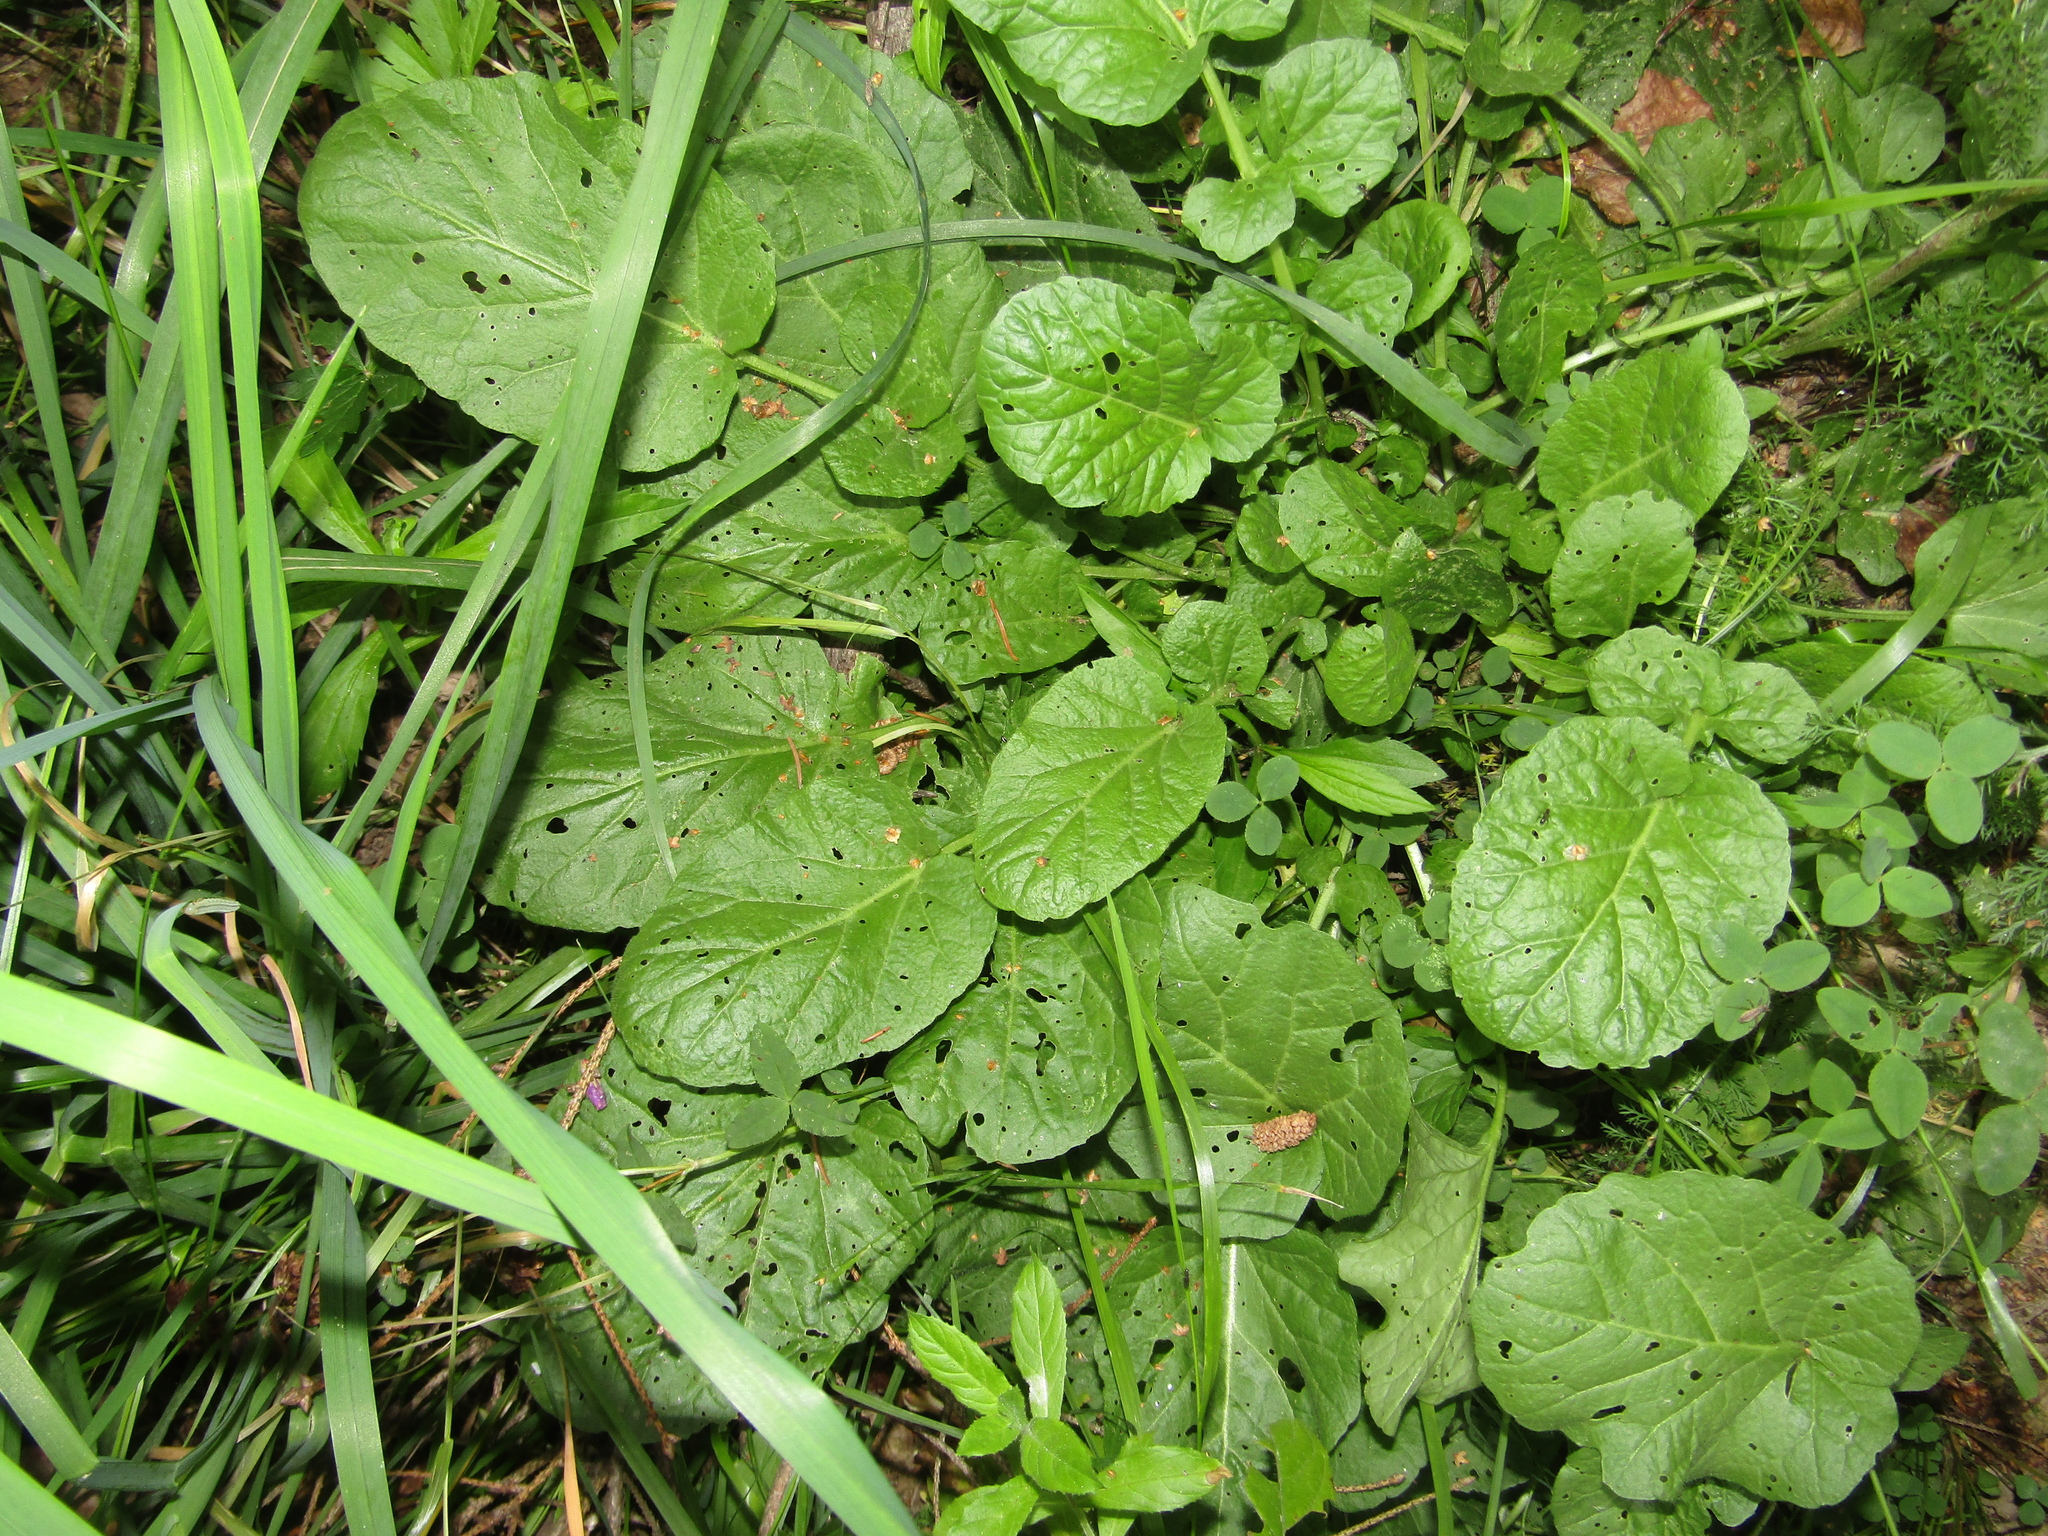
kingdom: Plantae
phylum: Tracheophyta
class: Magnoliopsida
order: Brassicales
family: Brassicaceae
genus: Barbarea
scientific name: Barbarea vulgaris
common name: Cressy-greens
